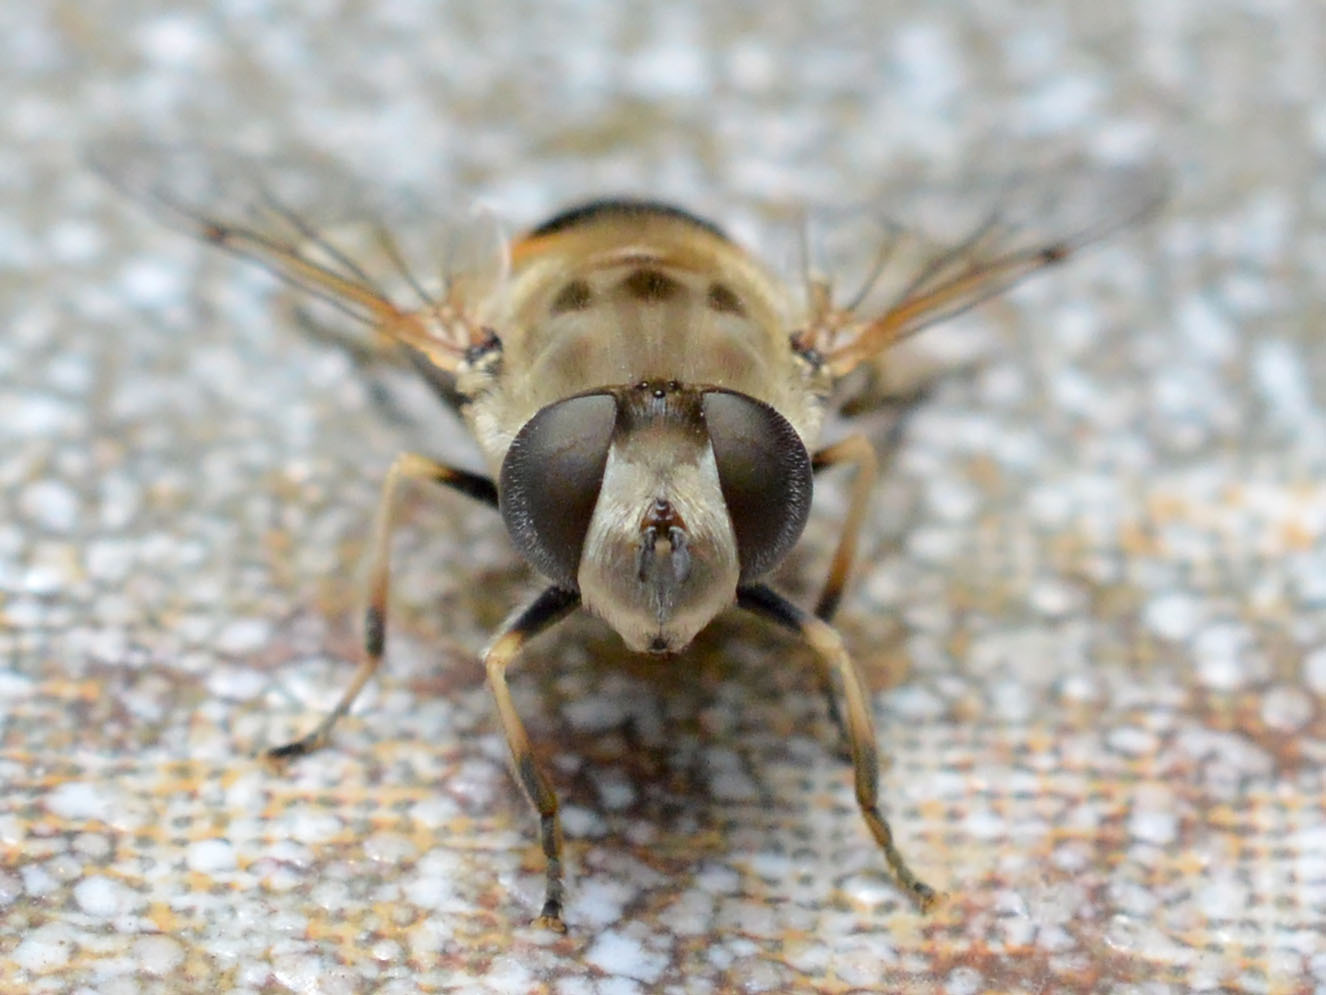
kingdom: Animalia
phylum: Arthropoda
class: Insecta
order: Diptera
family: Syrphidae
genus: Eristalis
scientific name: Eristalis arbustorum
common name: Hover fly
